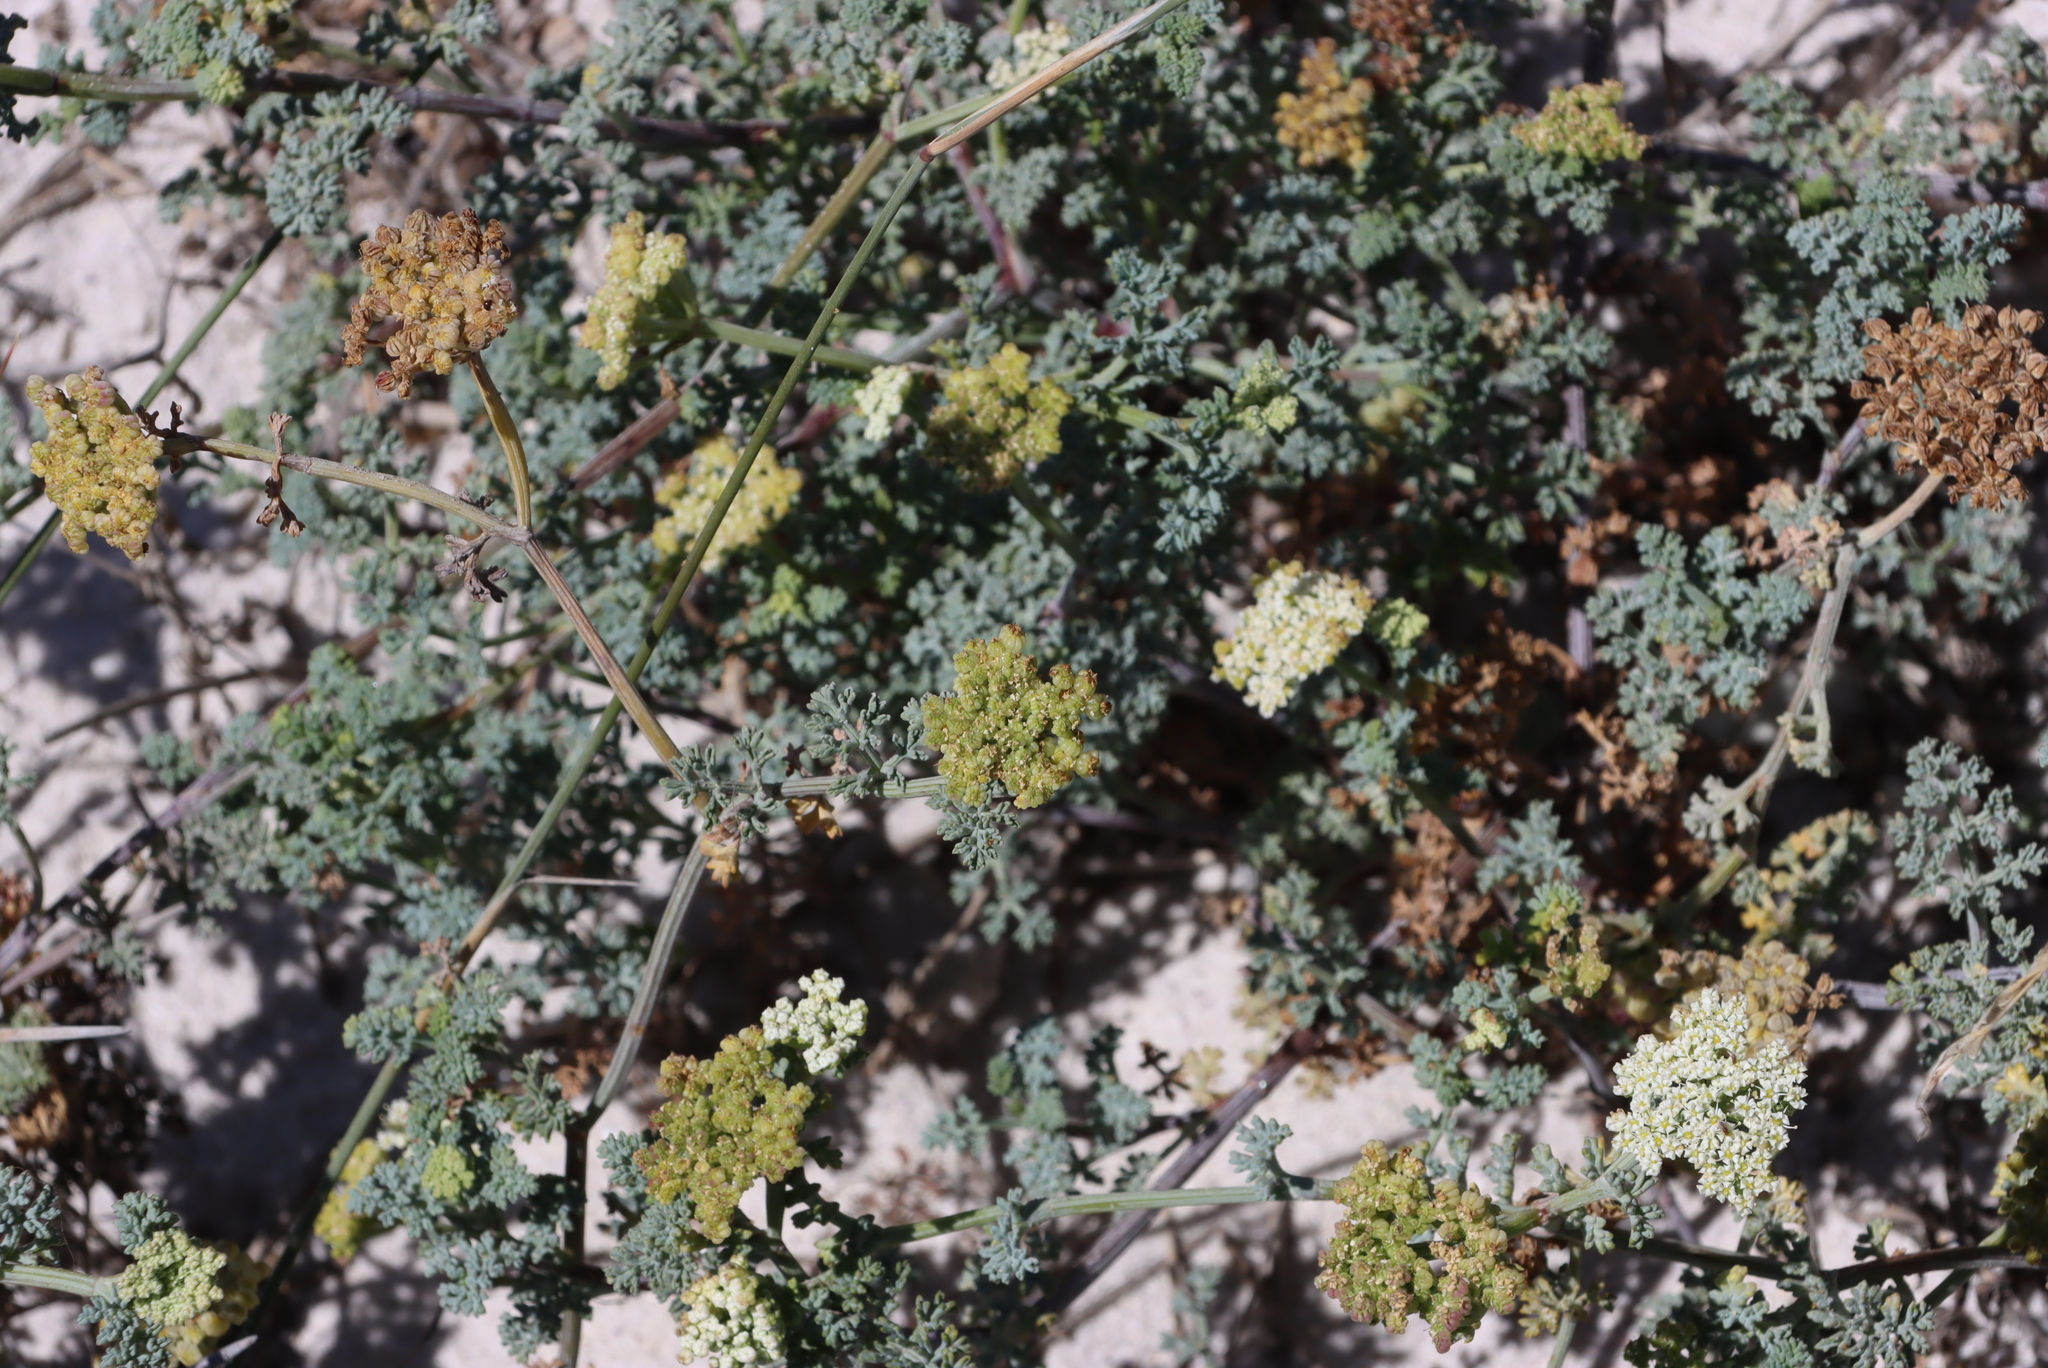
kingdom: Plantae
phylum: Tracheophyta
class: Magnoliopsida
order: Apiales
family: Apiaceae
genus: Dasispermum
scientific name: Dasispermum suffruticosum
